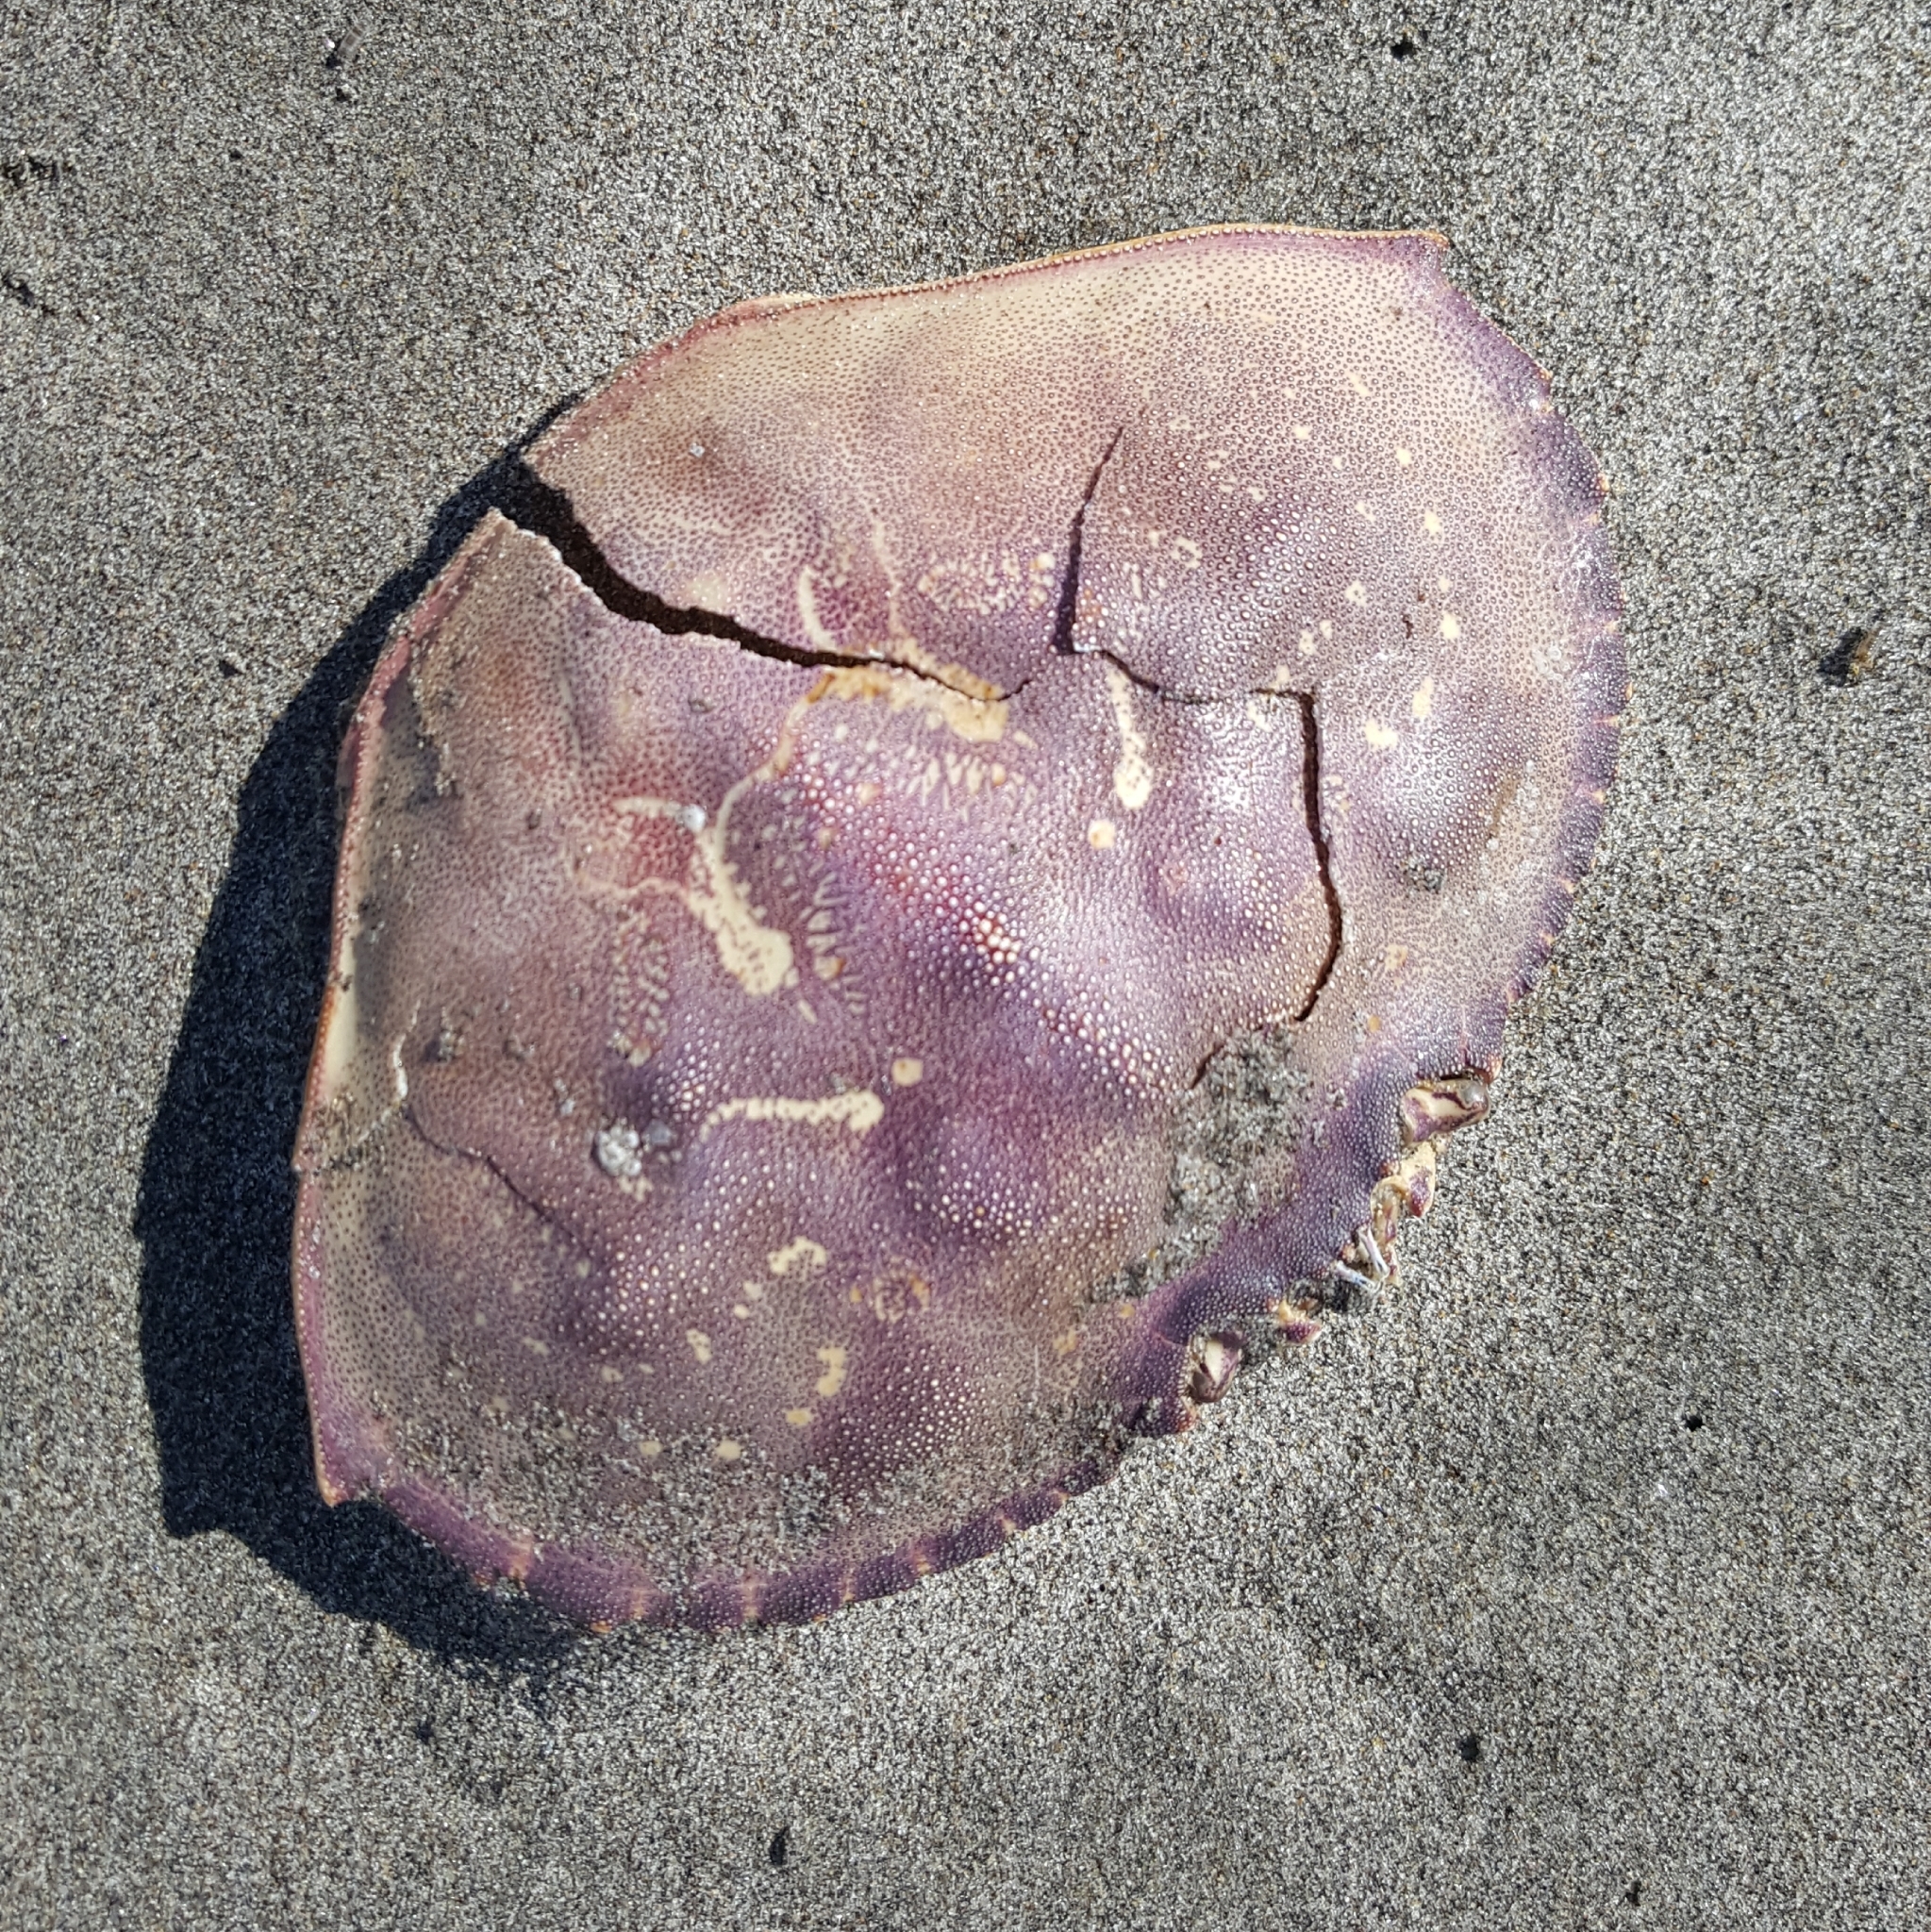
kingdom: Animalia
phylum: Arthropoda
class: Malacostraca
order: Decapoda
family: Cancridae
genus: Metacarcinus
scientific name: Metacarcinus magister
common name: Californian crab
